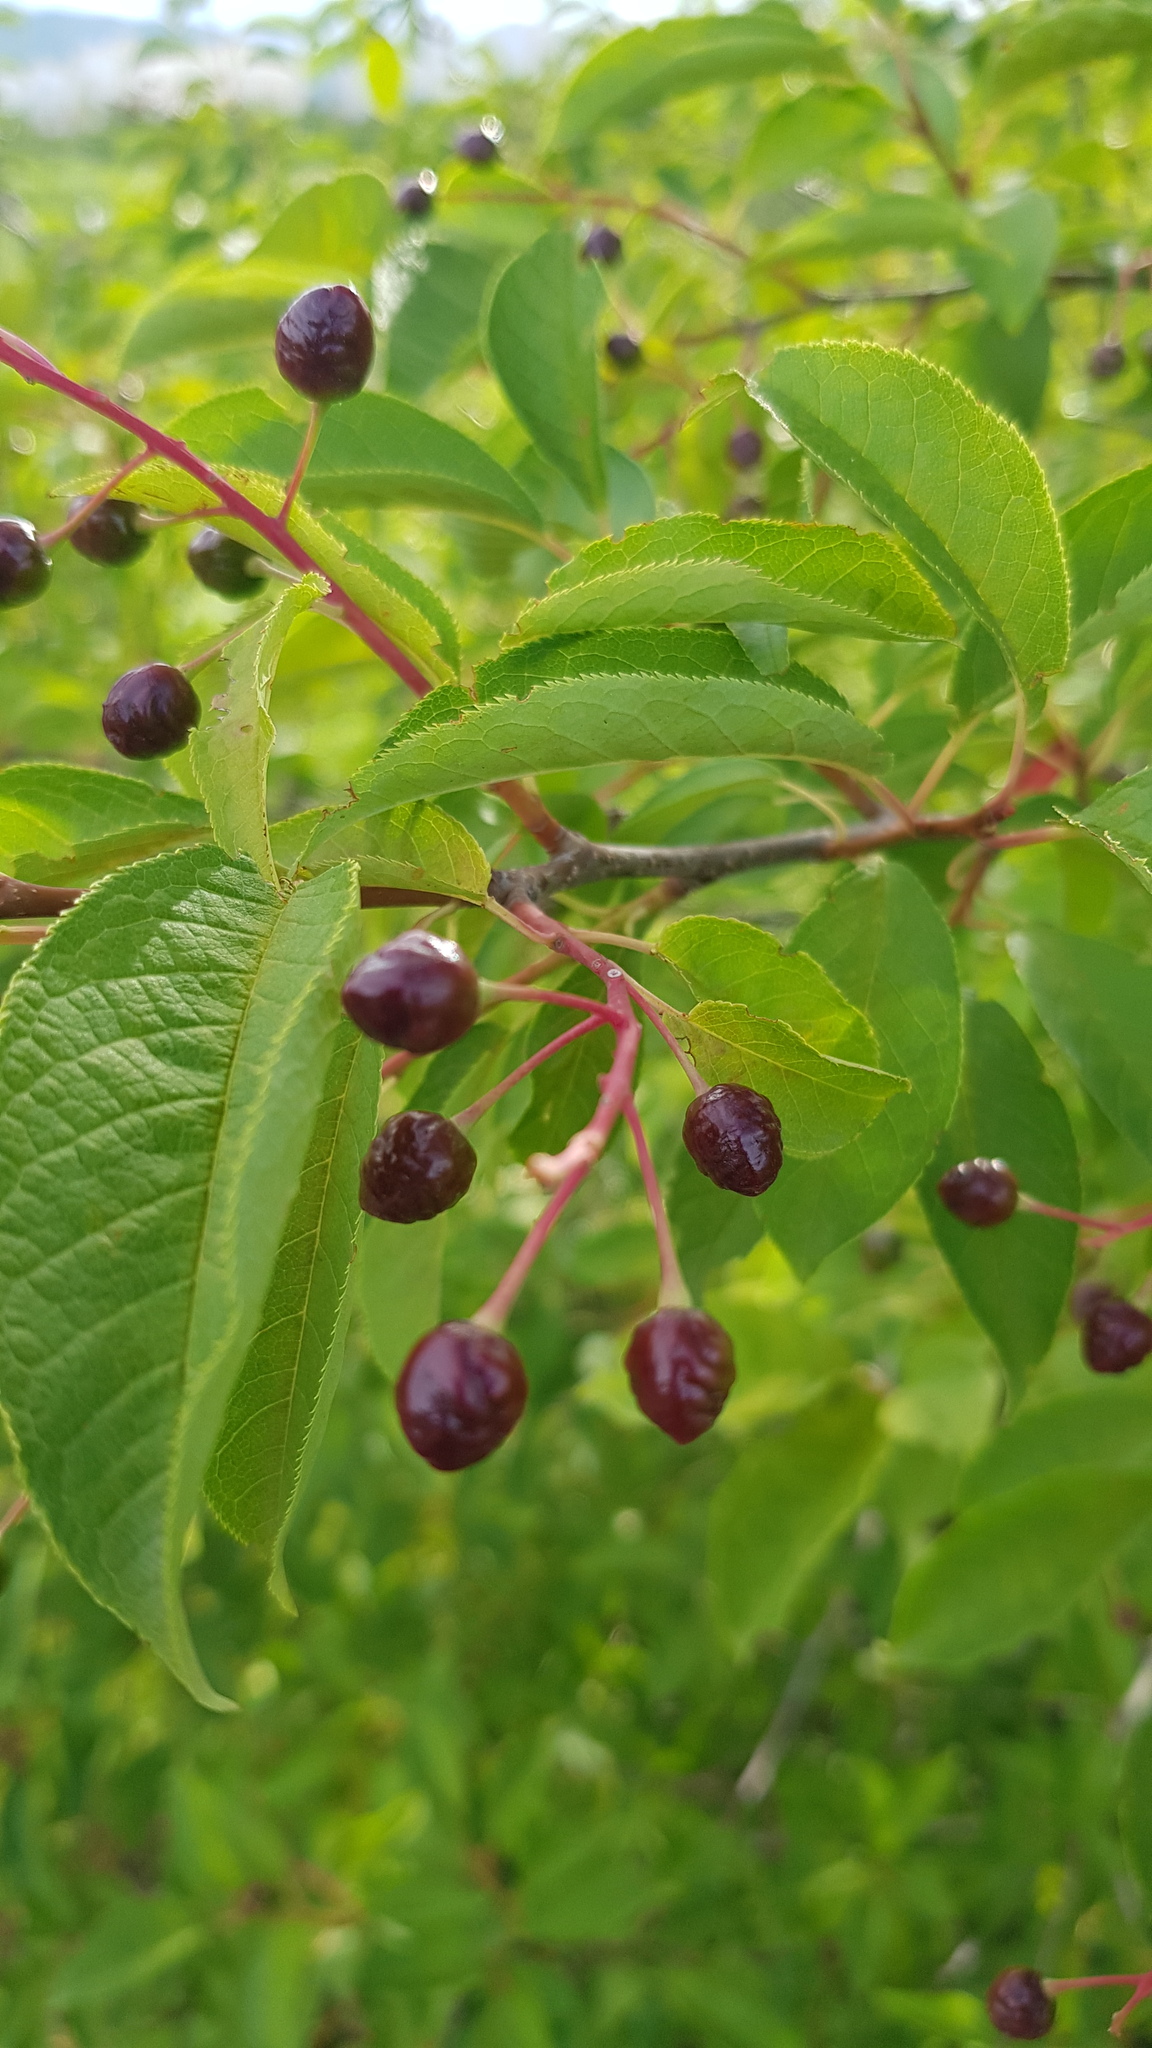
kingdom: Plantae
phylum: Tracheophyta
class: Magnoliopsida
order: Rosales
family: Rosaceae
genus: Prunus
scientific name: Prunus padus
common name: Bird cherry
